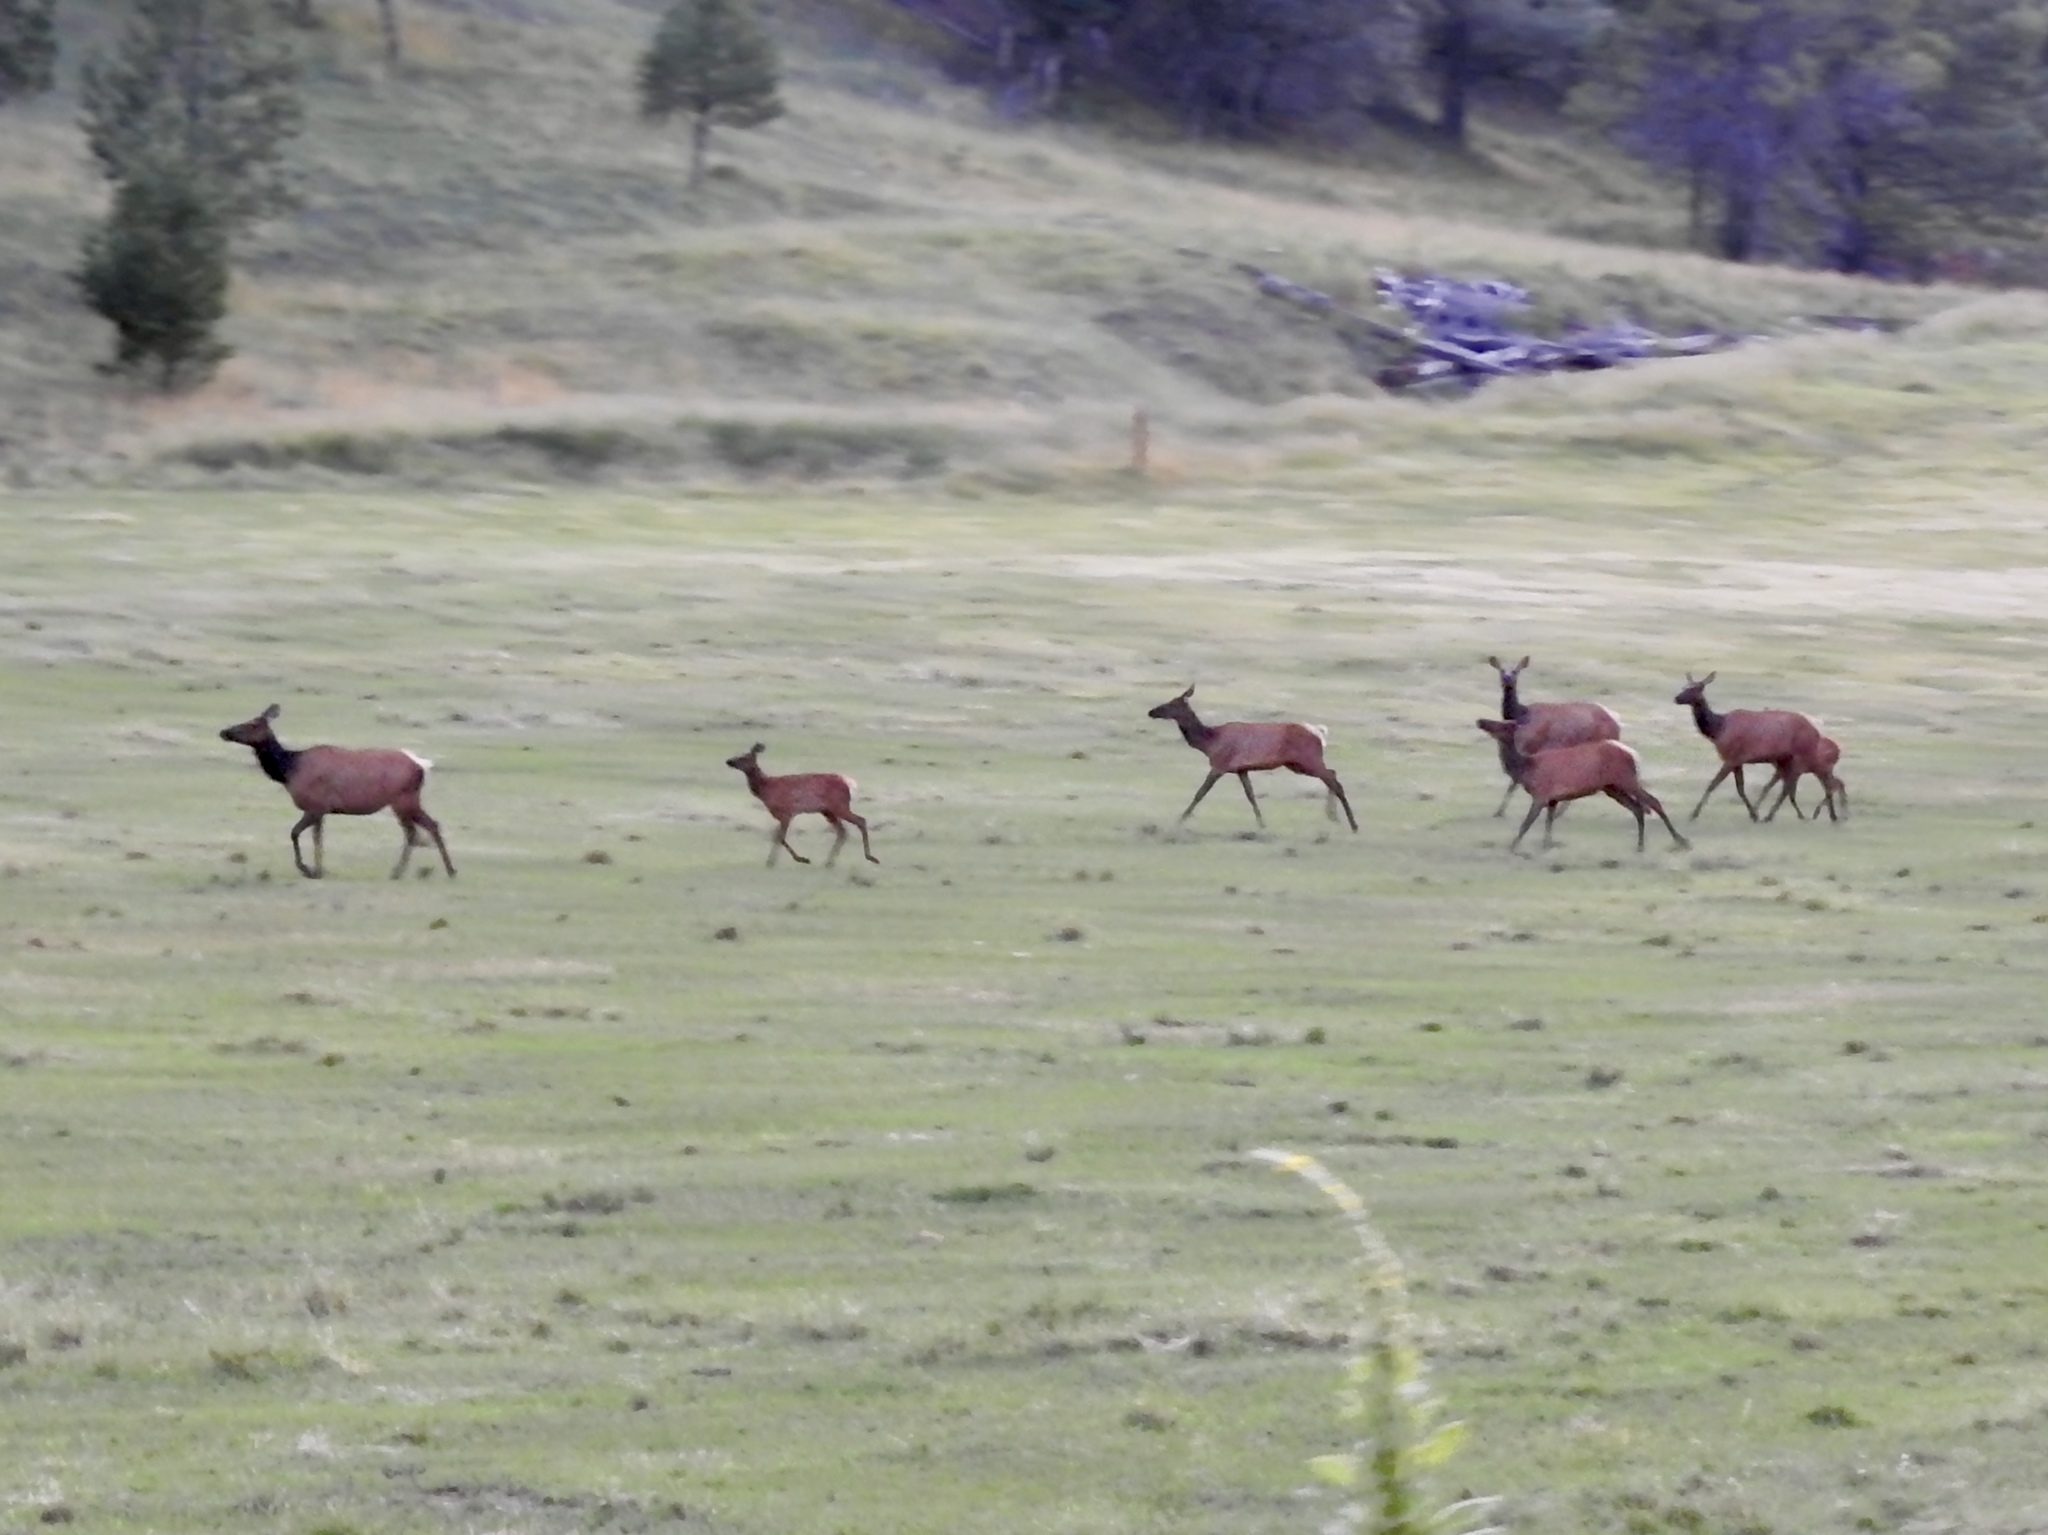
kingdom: Animalia
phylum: Chordata
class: Mammalia
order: Artiodactyla
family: Cervidae
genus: Cervus
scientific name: Cervus elaphus
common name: Red deer
